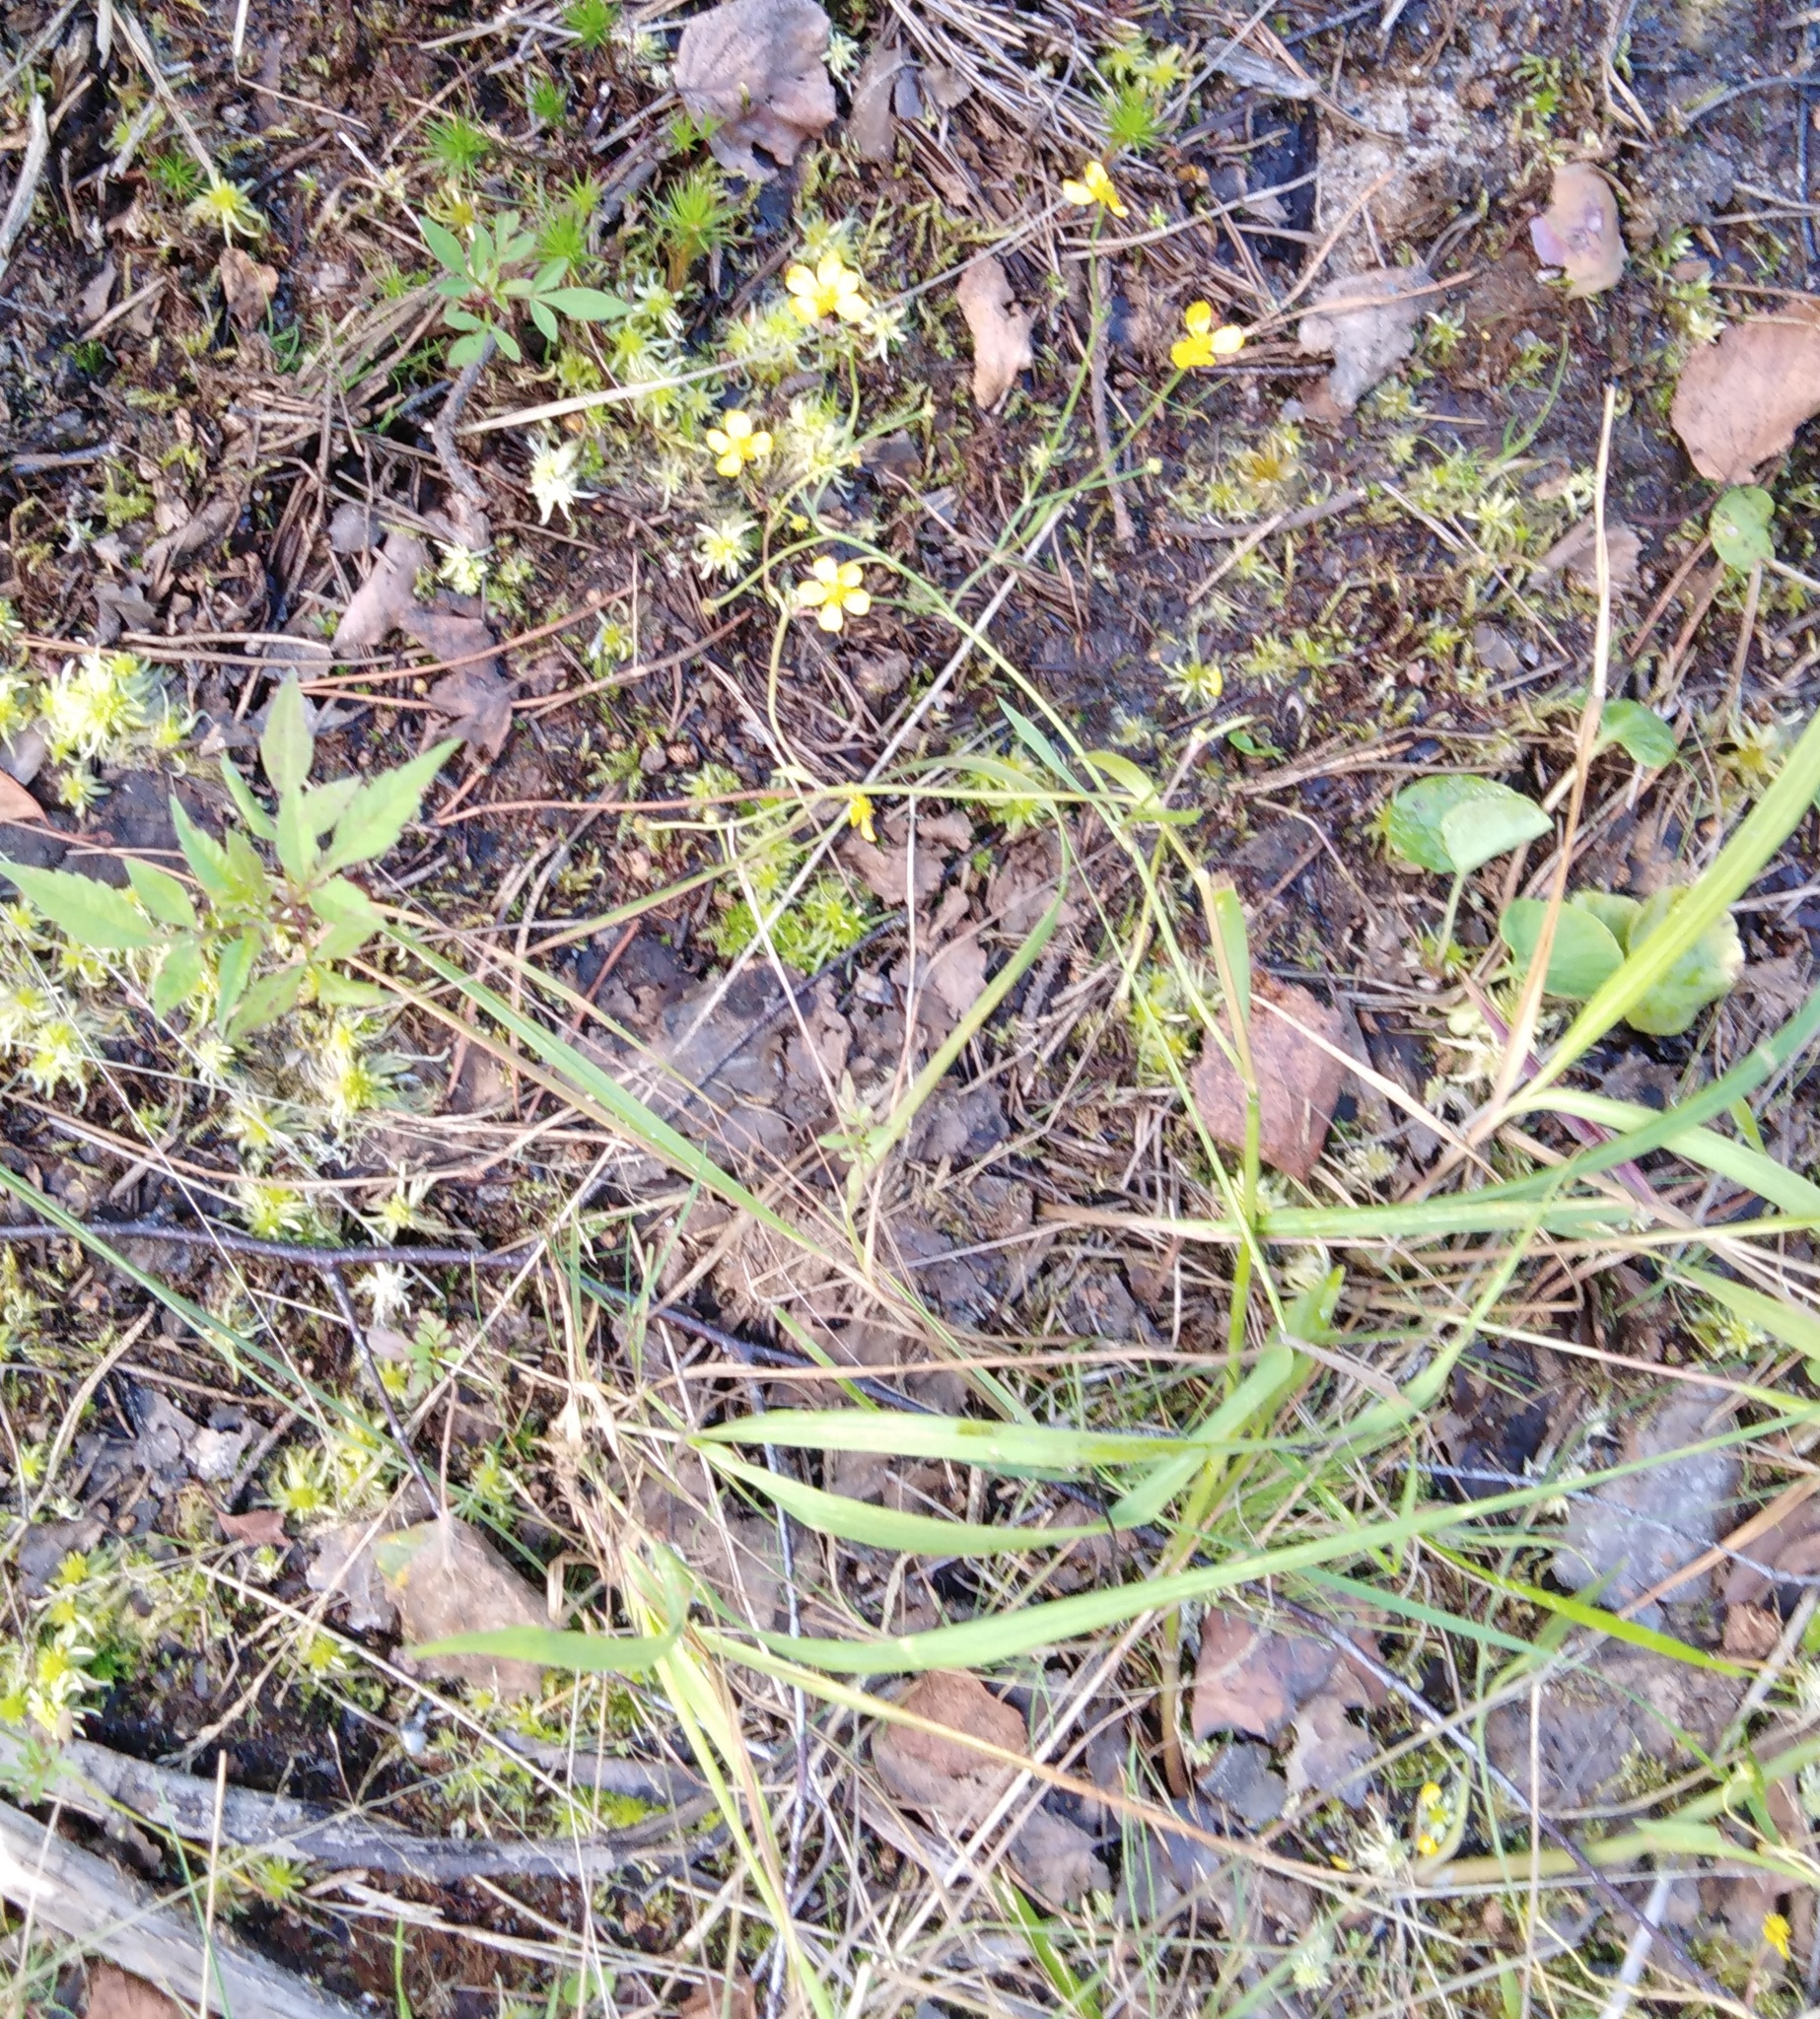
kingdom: Plantae
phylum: Tracheophyta
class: Magnoliopsida
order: Ranunculales
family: Ranunculaceae
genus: Ranunculus
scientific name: Ranunculus flammula
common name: Lesser spearwort
